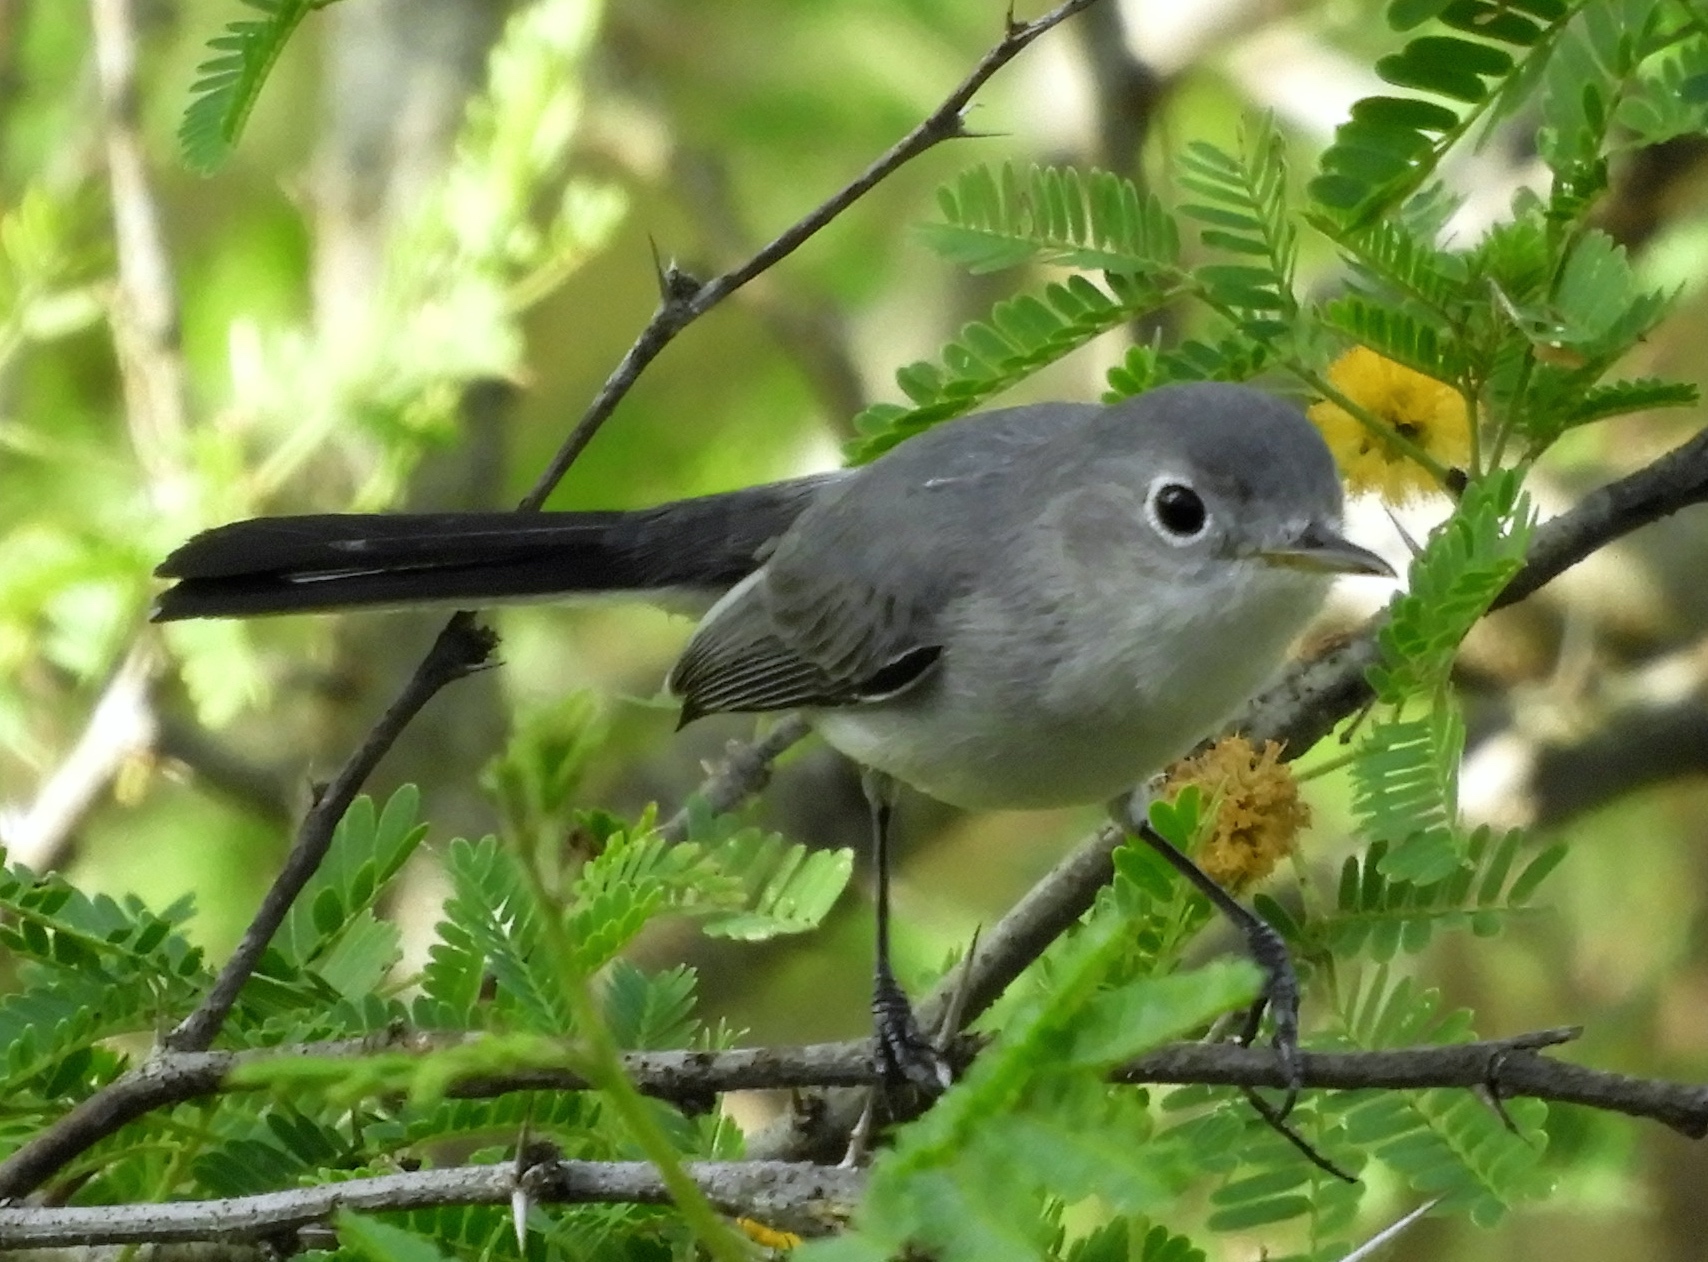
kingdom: Animalia
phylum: Chordata
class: Aves
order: Passeriformes
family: Polioptilidae
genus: Polioptila
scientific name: Polioptila caerulea
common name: Blue-gray gnatcatcher
